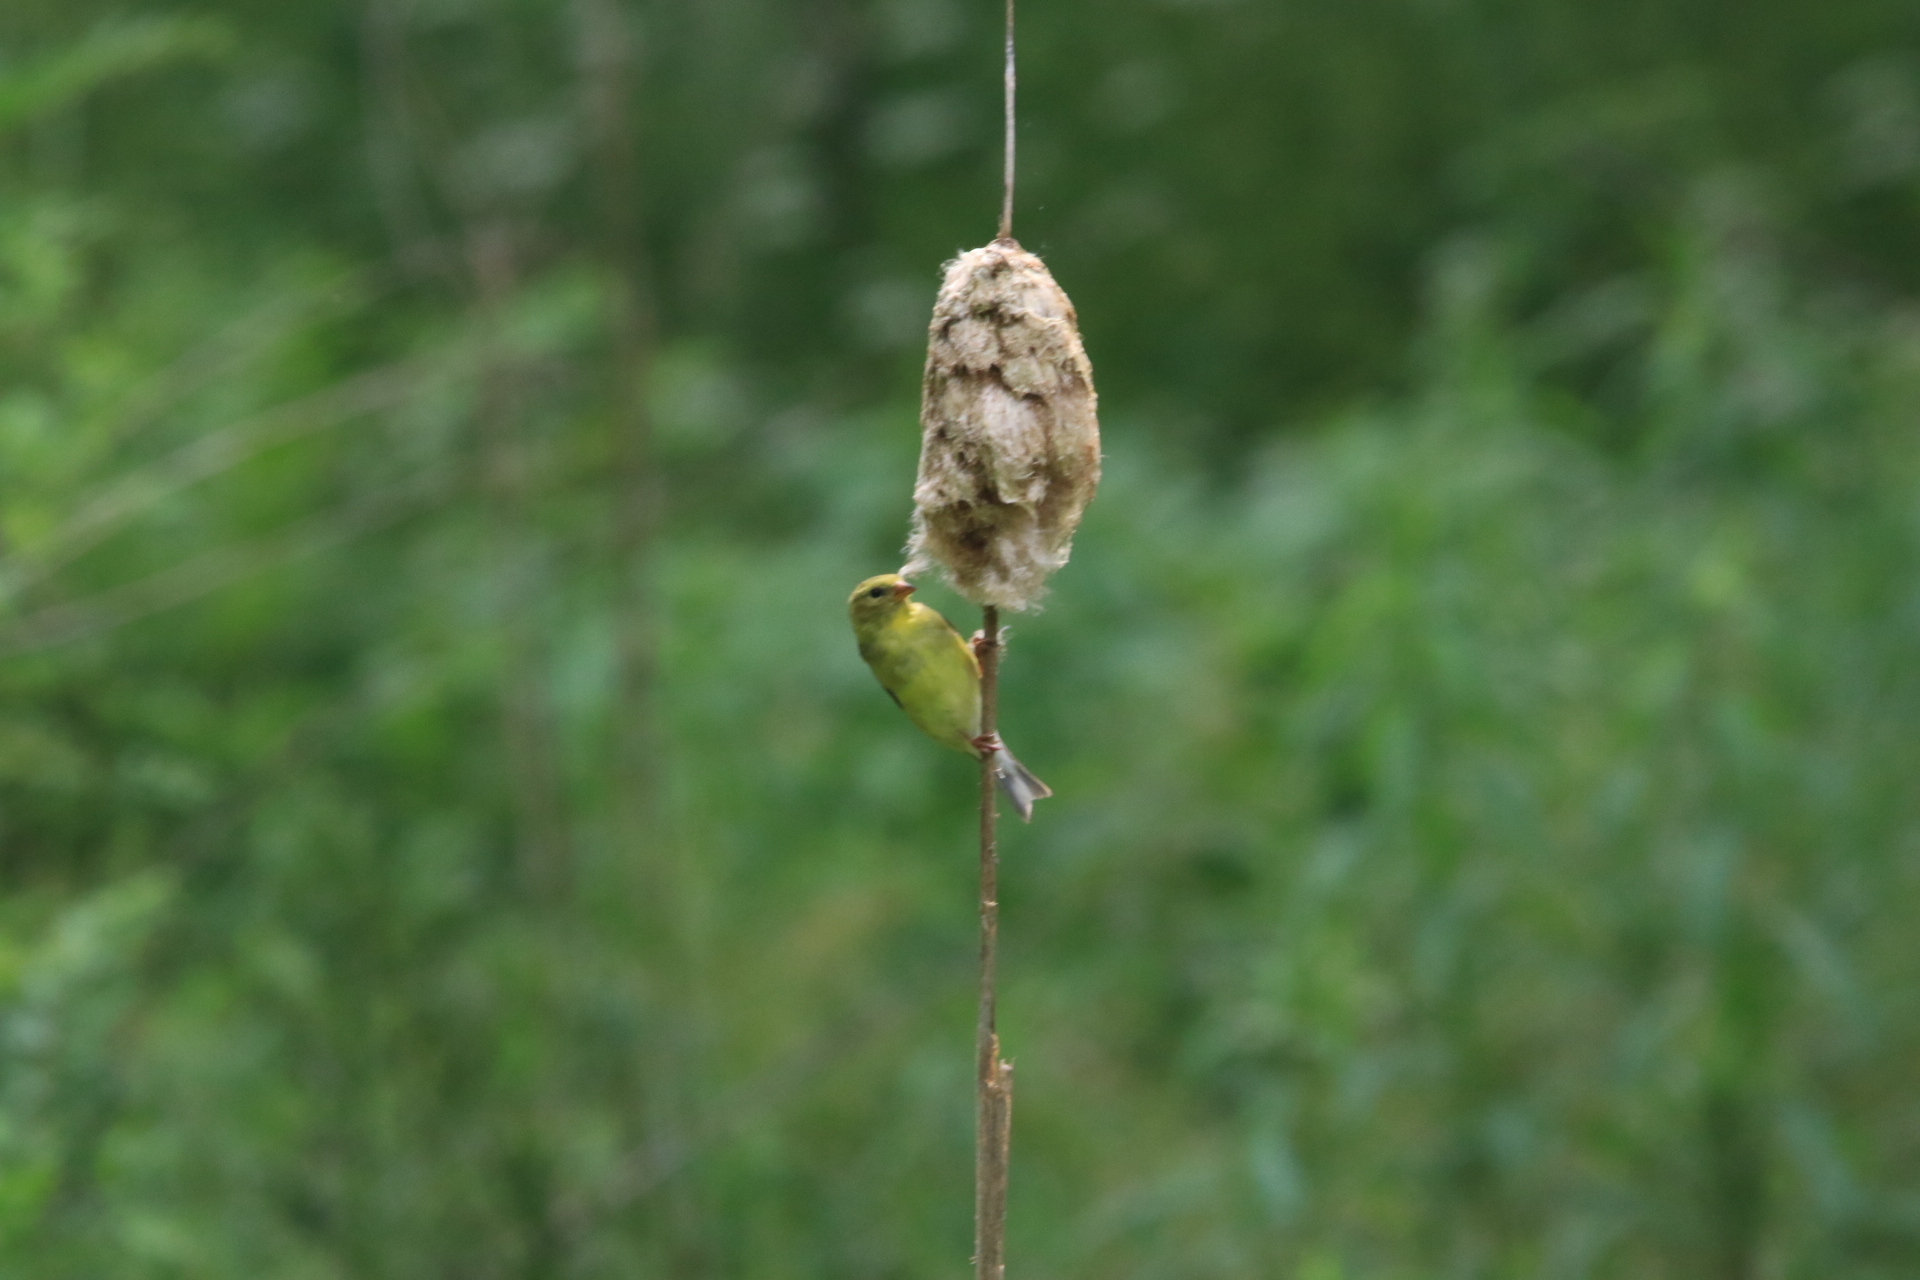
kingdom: Animalia
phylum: Chordata
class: Aves
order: Passeriformes
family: Fringillidae
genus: Spinus
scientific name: Spinus tristis
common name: American goldfinch
